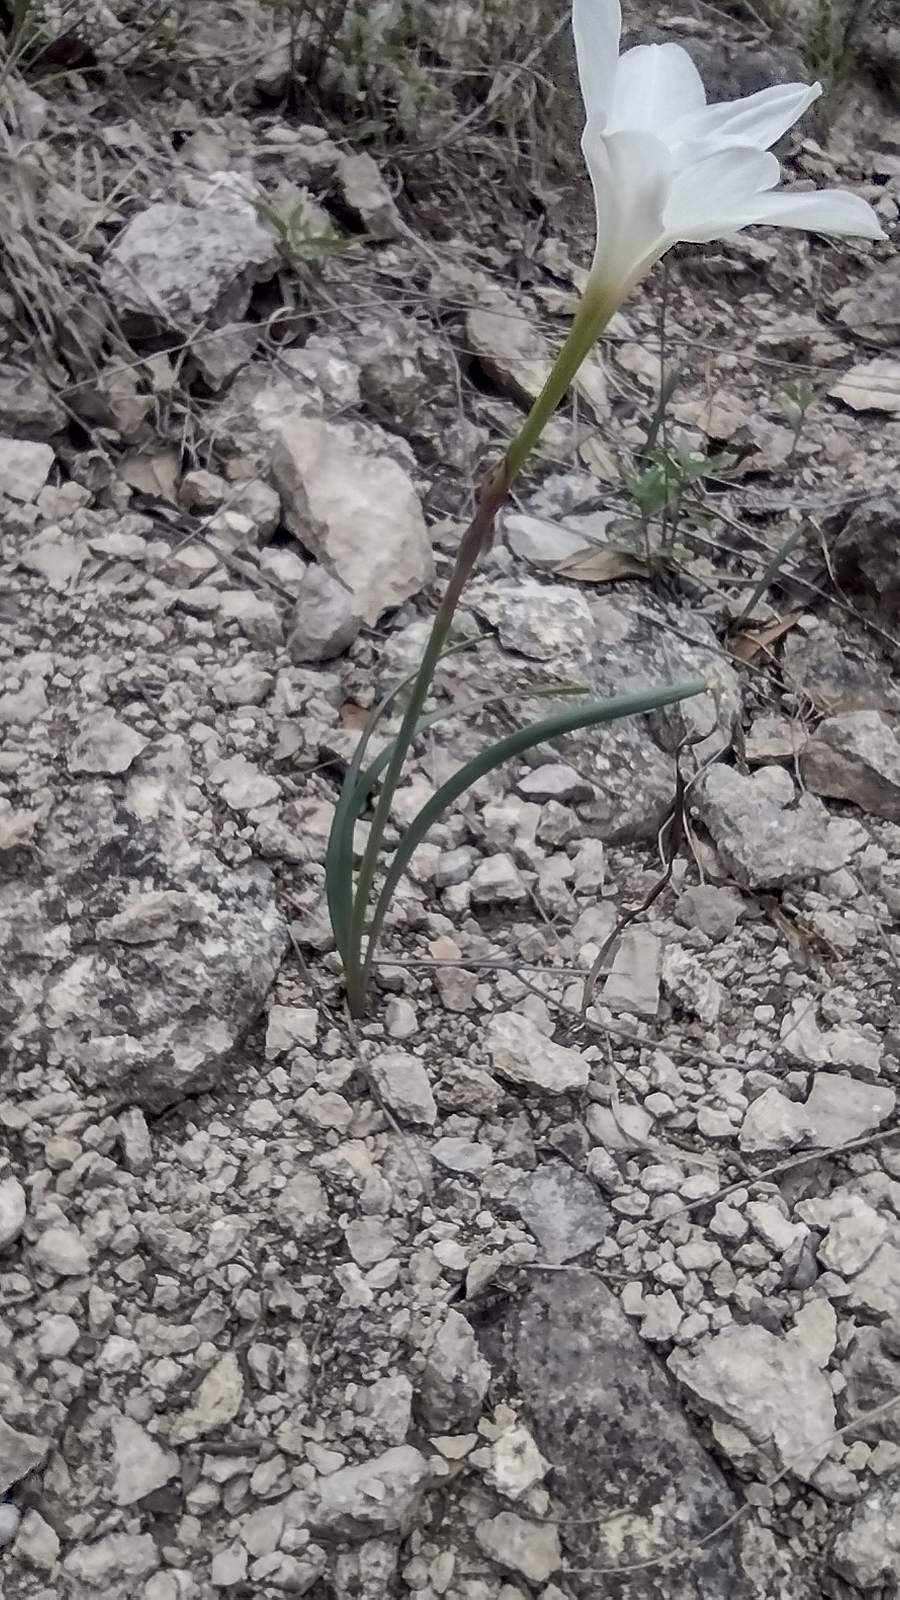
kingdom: Plantae
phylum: Tracheophyta
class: Liliopsida
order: Asparagales
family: Amaryllidaceae
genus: Zephyranthes
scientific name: Zephyranthes drummondii
